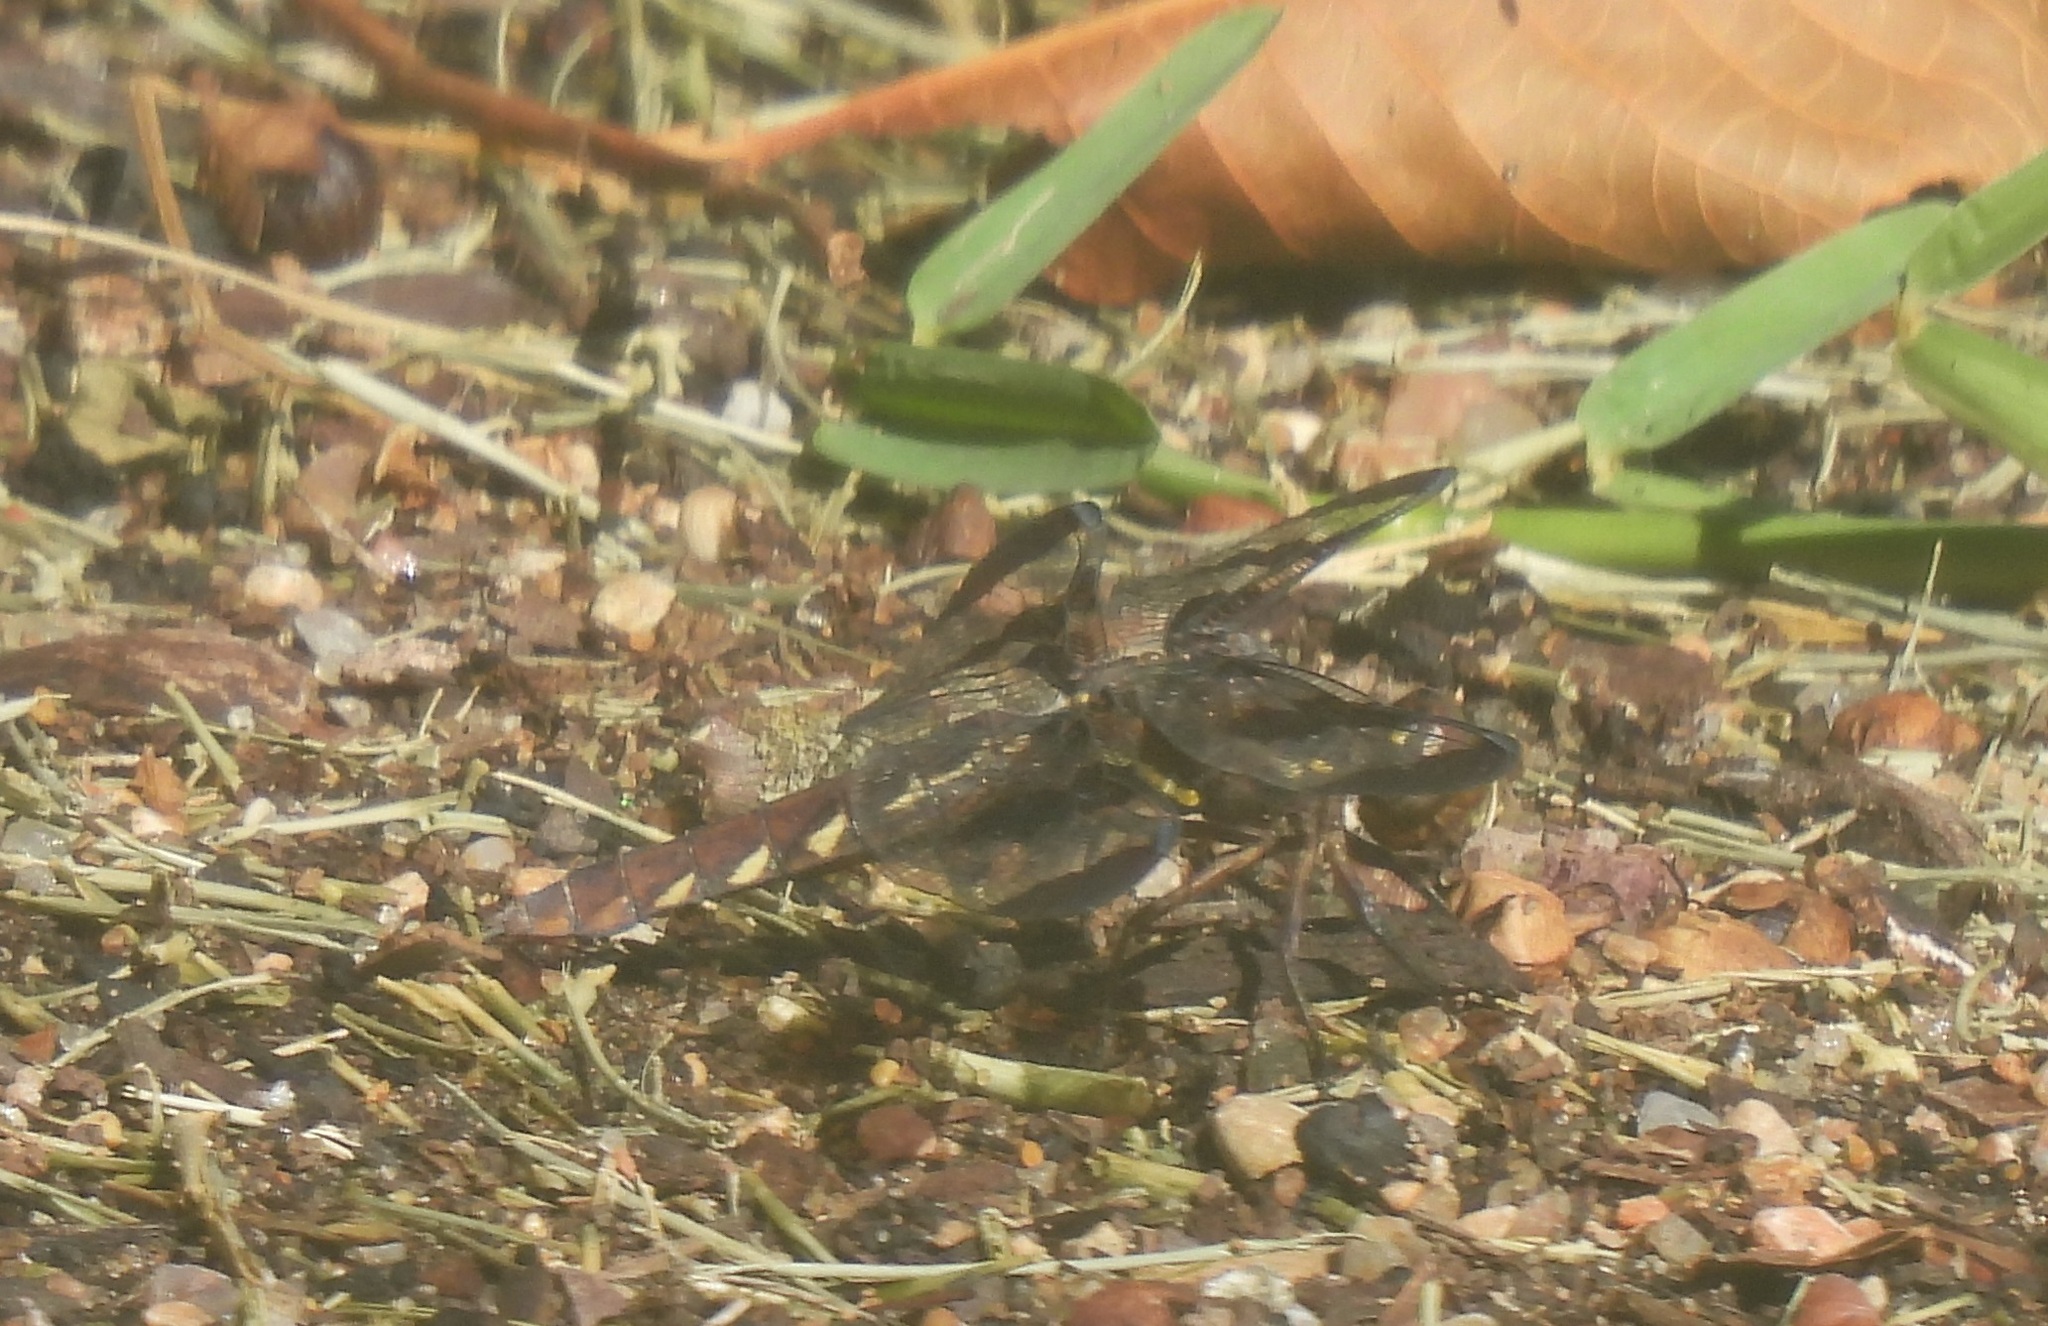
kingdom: Animalia
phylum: Arthropoda
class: Insecta
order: Odonata
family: Libellulidae
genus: Plathemis
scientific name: Plathemis lydia
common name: Common whitetail
